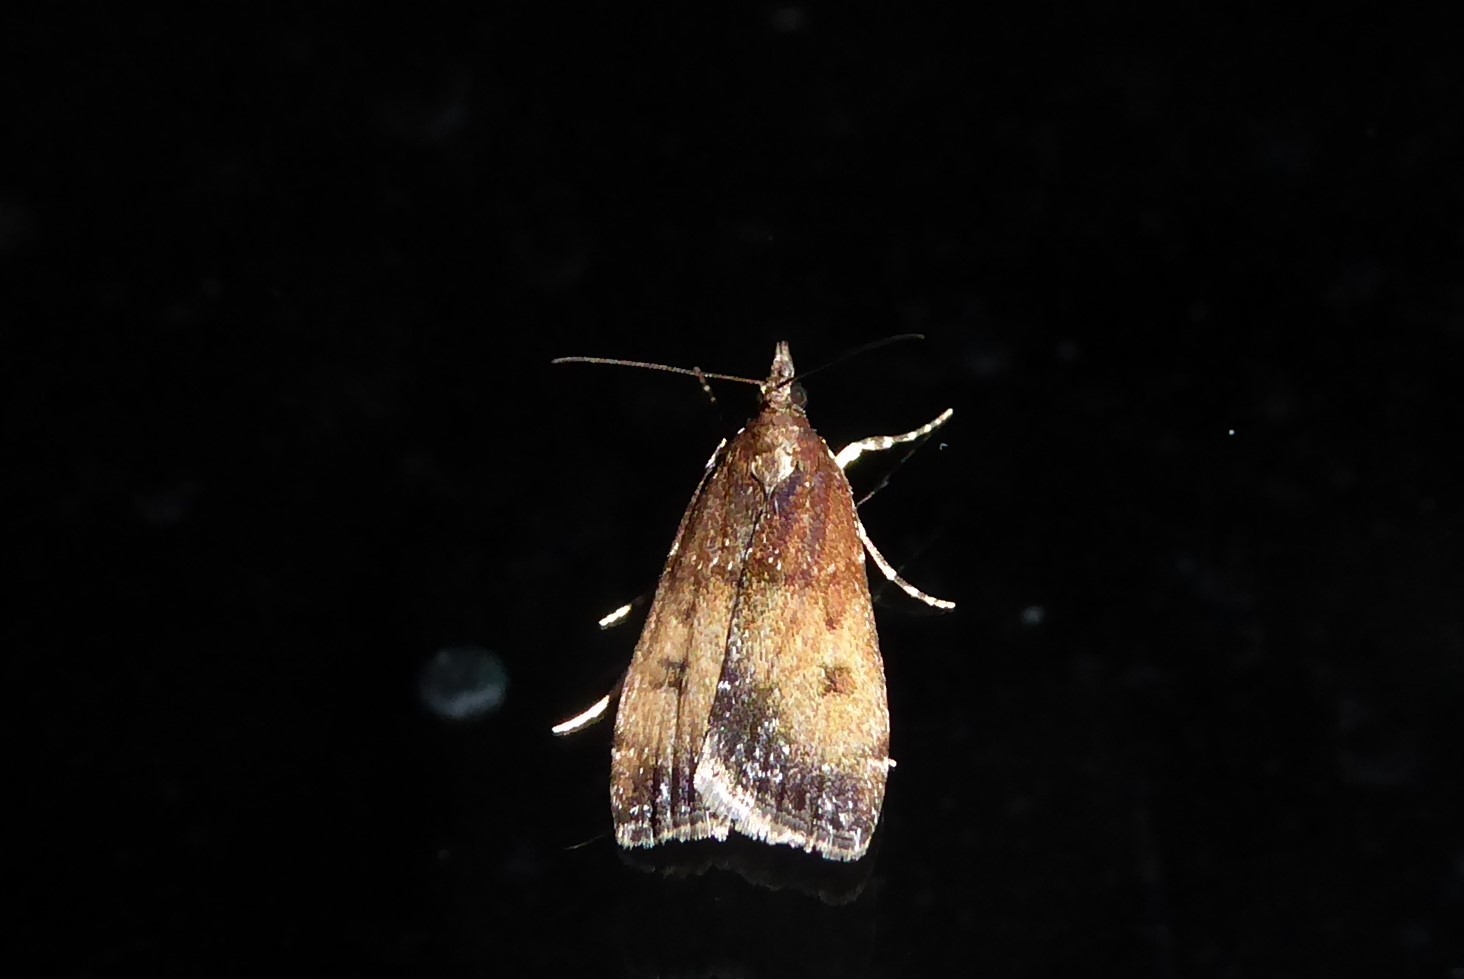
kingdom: Animalia
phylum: Arthropoda
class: Insecta
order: Lepidoptera
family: Crambidae
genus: Eudonia
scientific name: Eudonia asterisca
